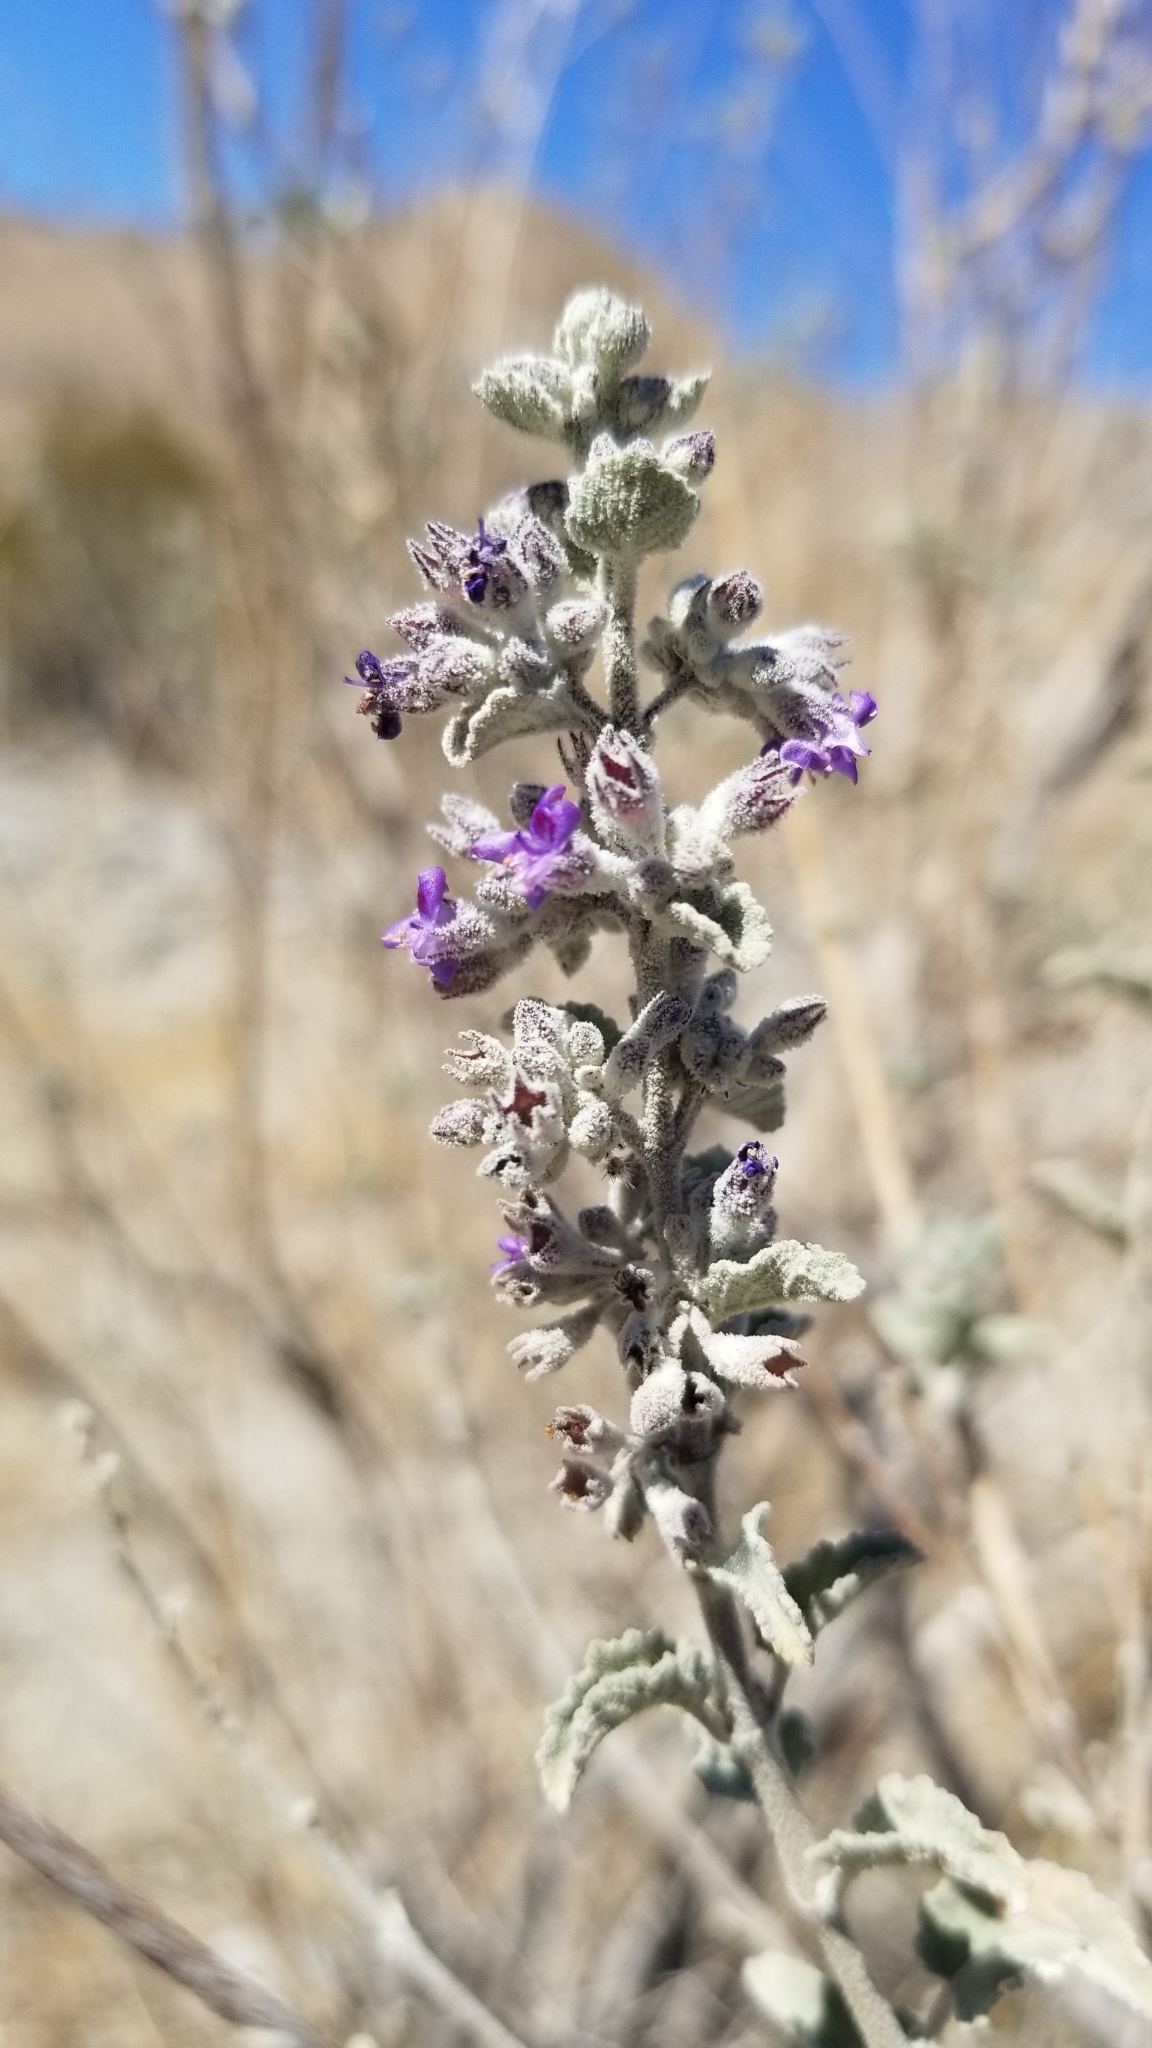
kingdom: Plantae
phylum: Tracheophyta
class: Magnoliopsida
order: Lamiales
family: Lamiaceae
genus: Condea
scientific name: Condea emoryi
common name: Chia
